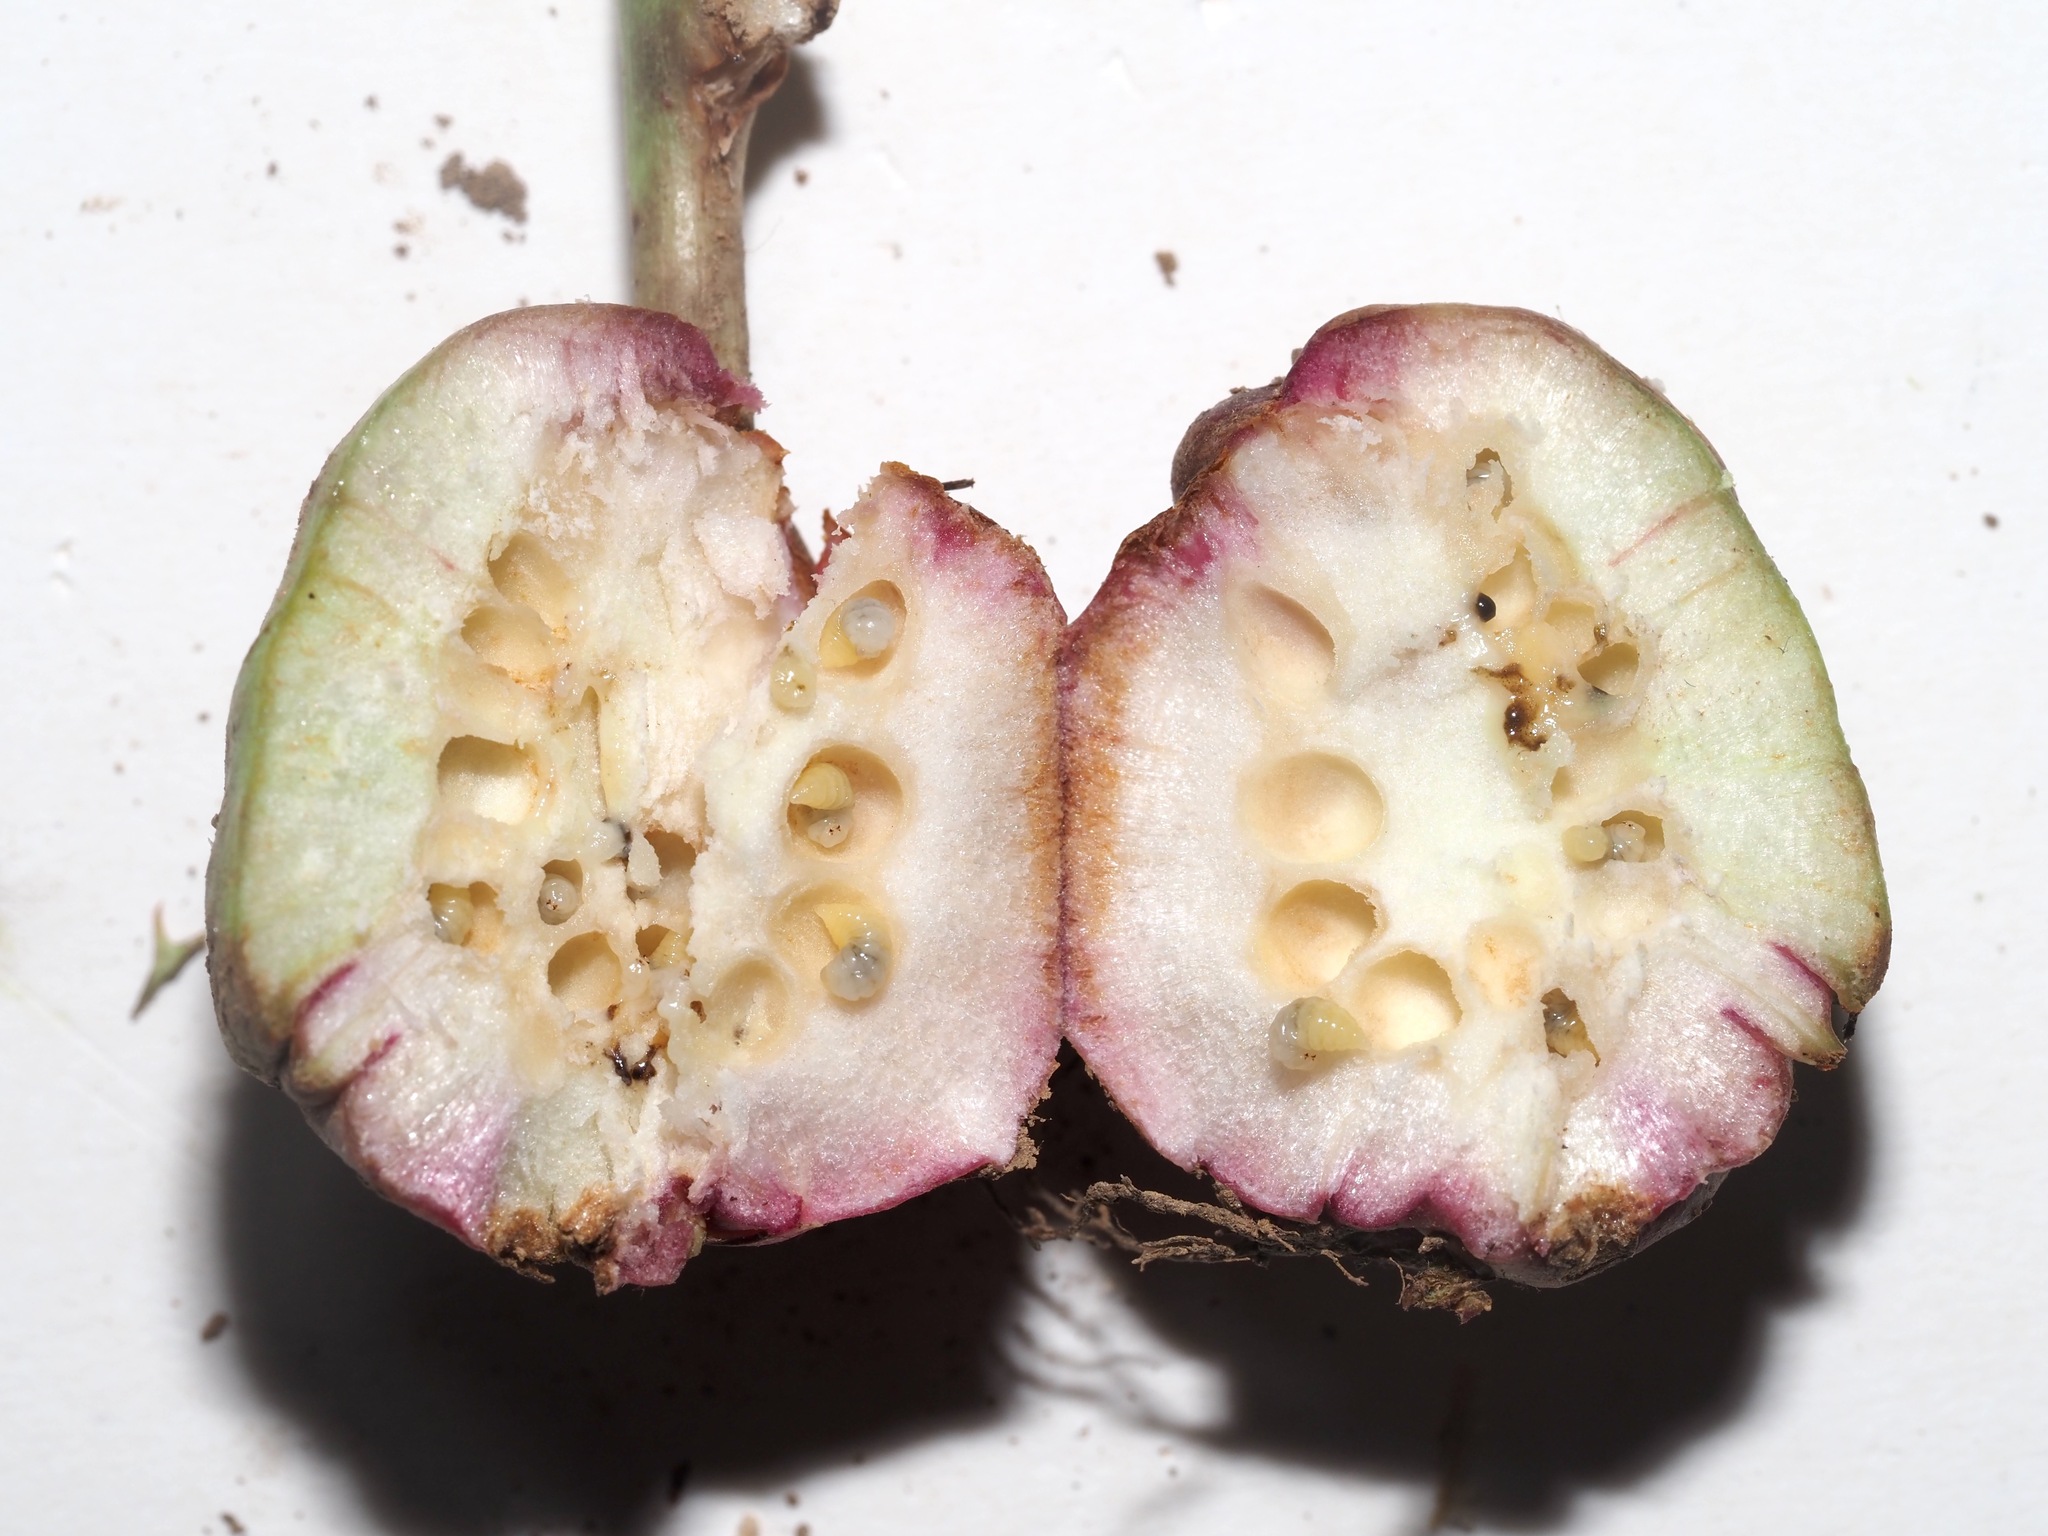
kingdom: Animalia
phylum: Arthropoda
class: Insecta
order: Hymenoptera
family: Cynipidae
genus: Diastrophus
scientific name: Diastrophus
